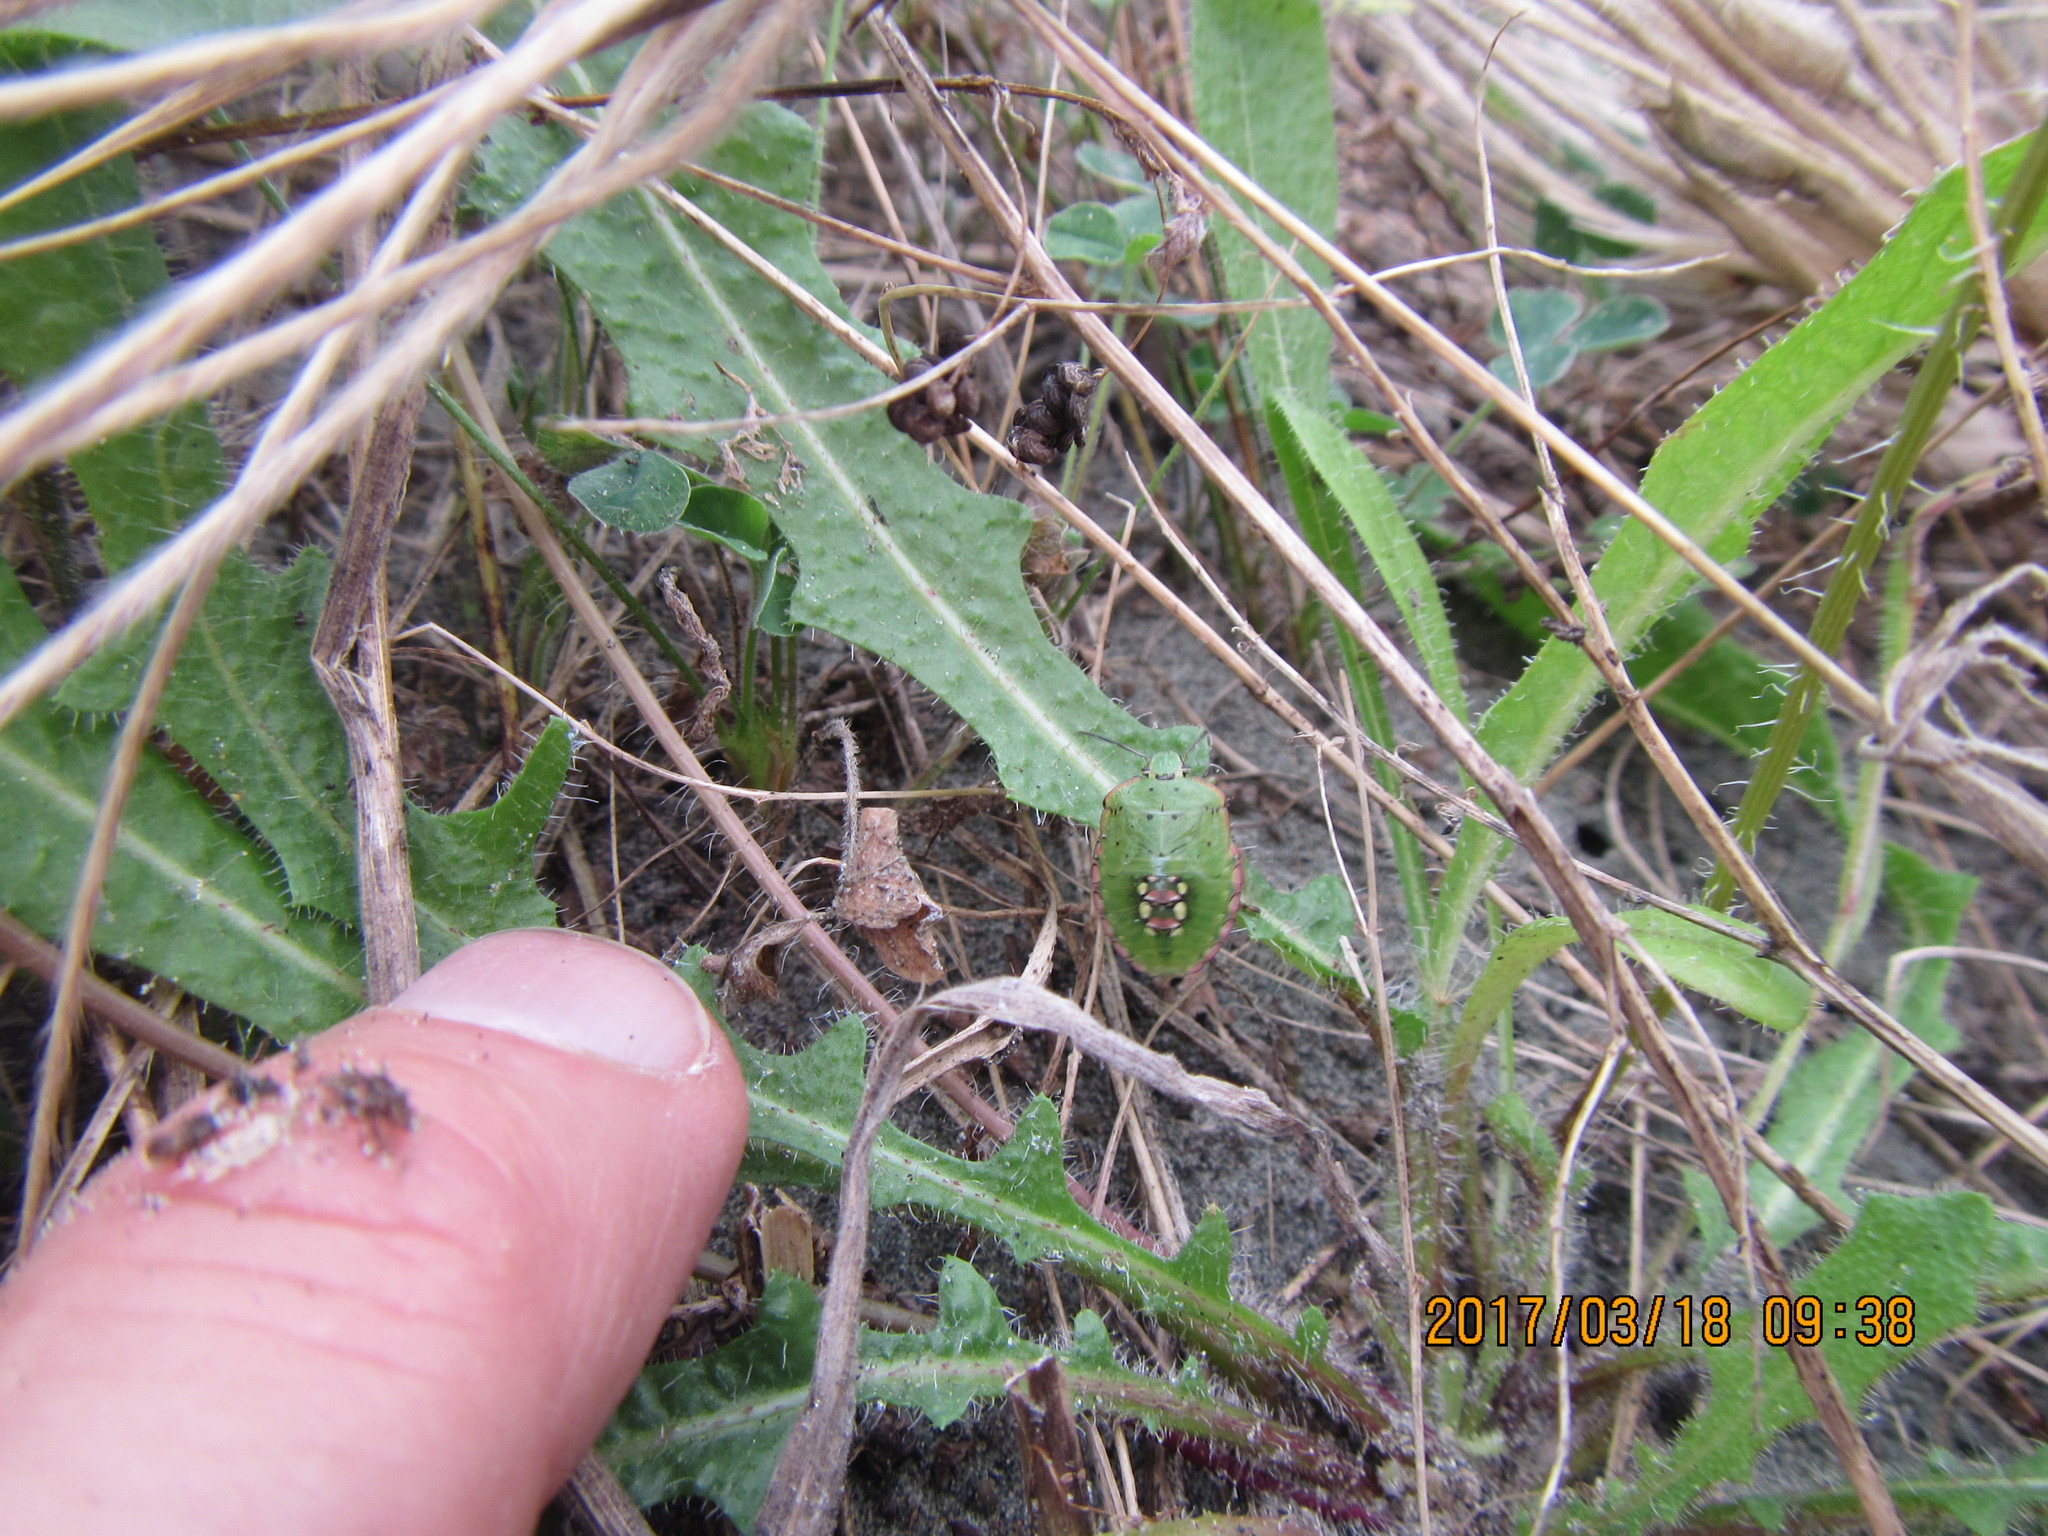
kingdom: Animalia
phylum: Arthropoda
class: Insecta
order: Hemiptera
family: Pentatomidae
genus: Nezara
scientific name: Nezara viridula
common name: Southern green stink bug
